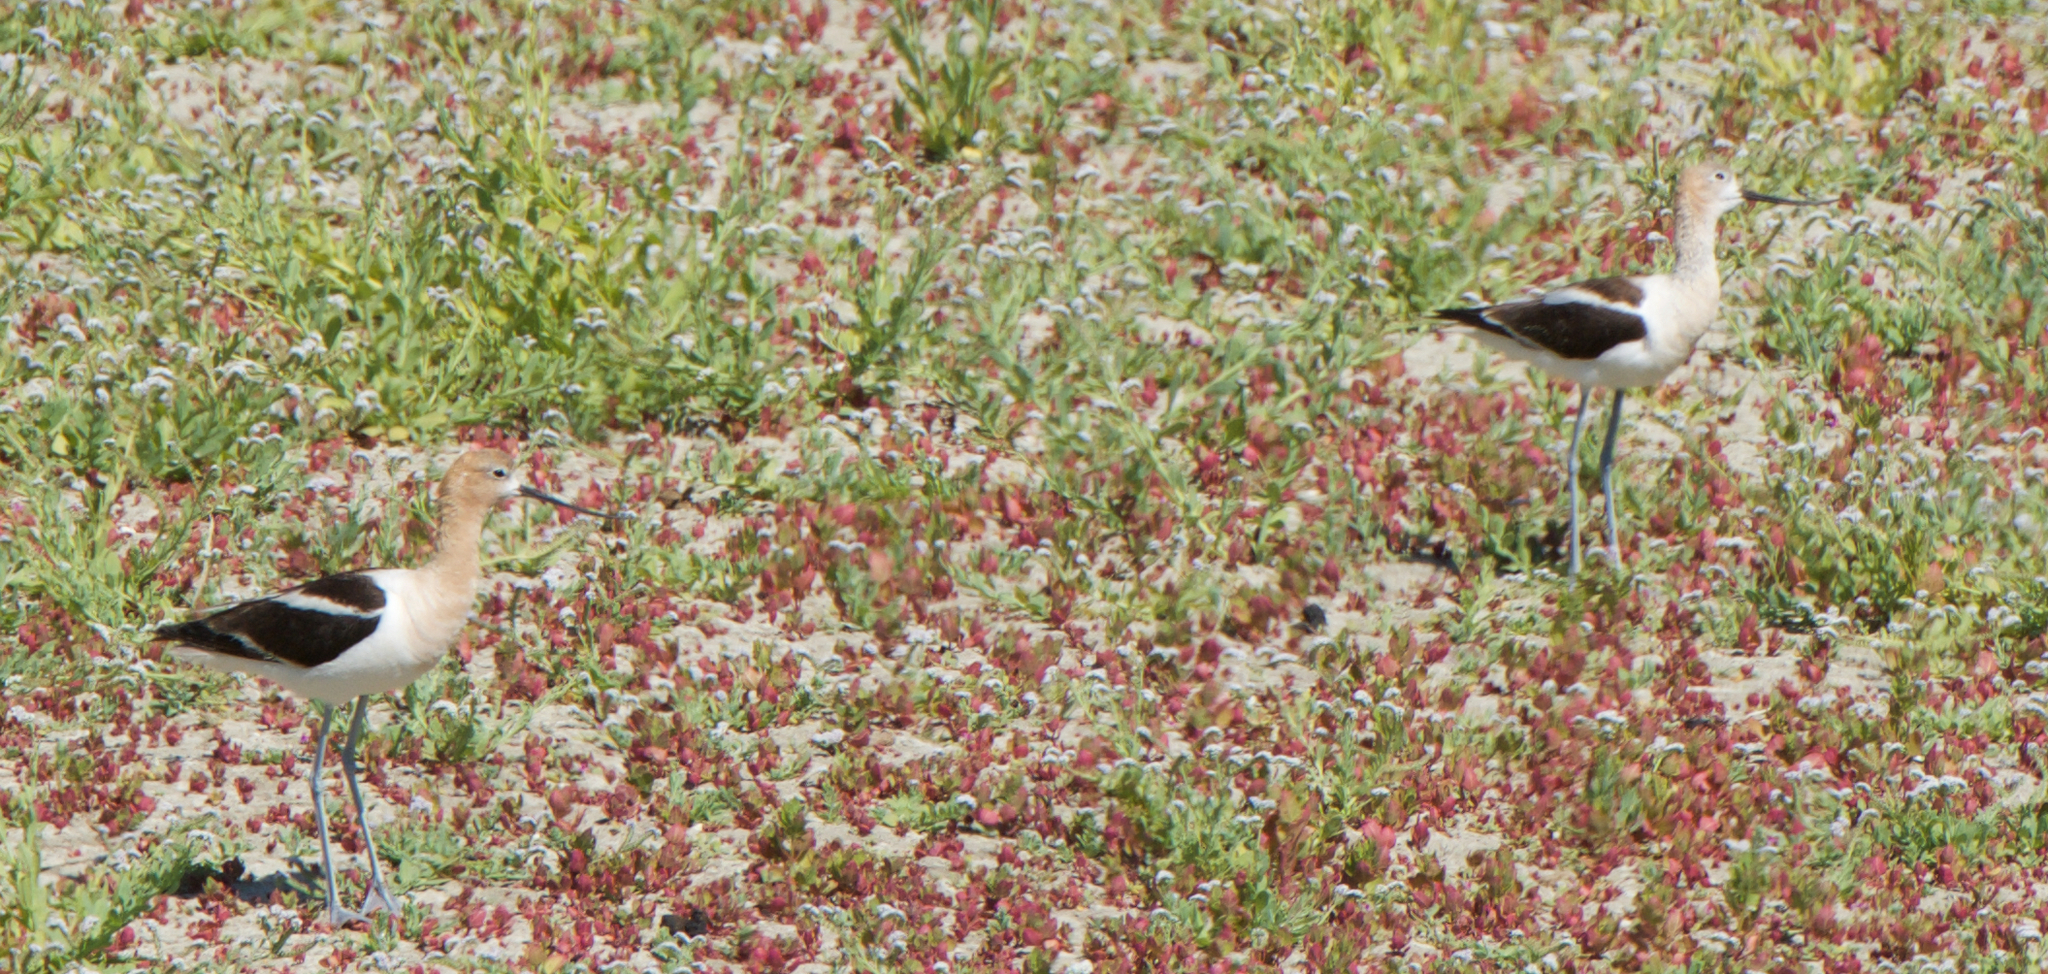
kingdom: Animalia
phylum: Chordata
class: Aves
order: Charadriiformes
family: Recurvirostridae
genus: Recurvirostra
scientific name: Recurvirostra americana
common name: American avocet
